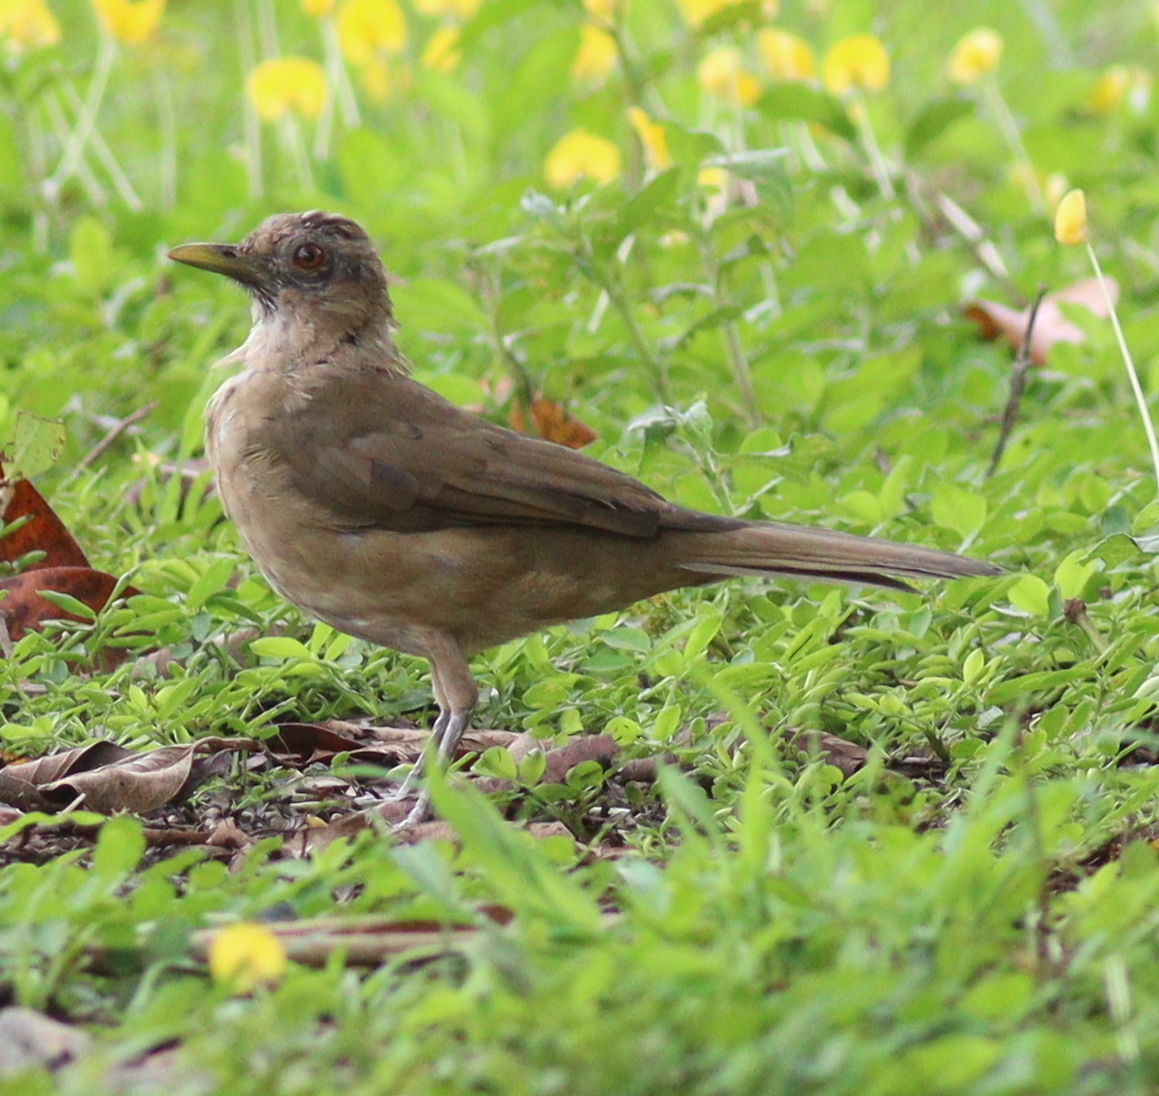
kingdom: Animalia
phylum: Chordata
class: Aves
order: Passeriformes
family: Turdidae
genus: Turdus
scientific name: Turdus grayi
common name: Clay-colored thrush
